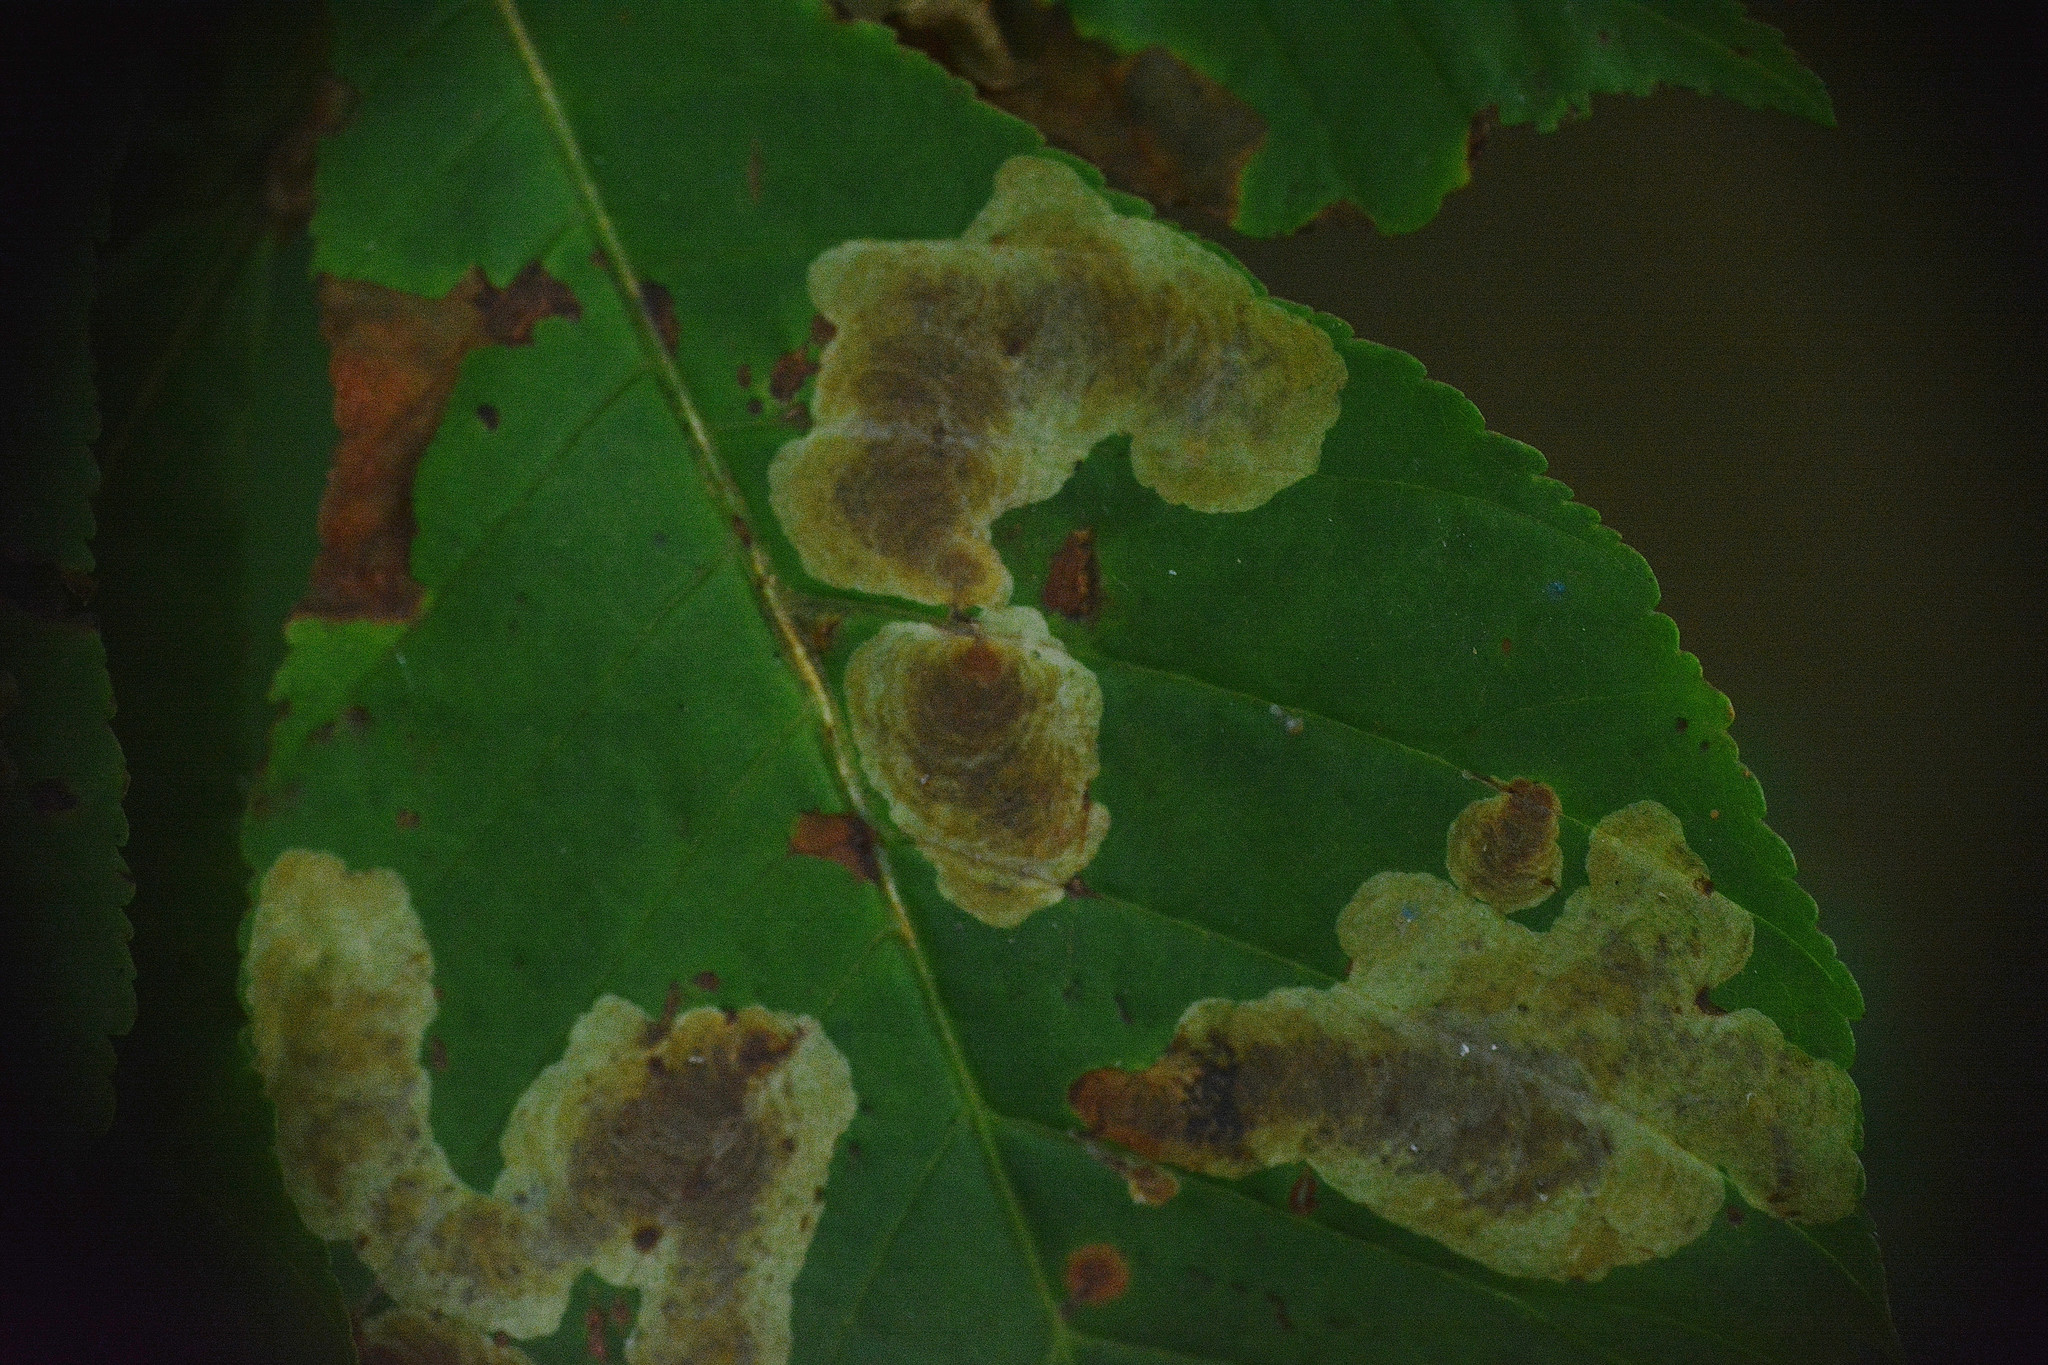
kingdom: Animalia
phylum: Arthropoda
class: Insecta
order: Lepidoptera
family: Gracillariidae
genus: Cameraria
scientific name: Cameraria ohridella
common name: Horse-chestnut leaf-miner
